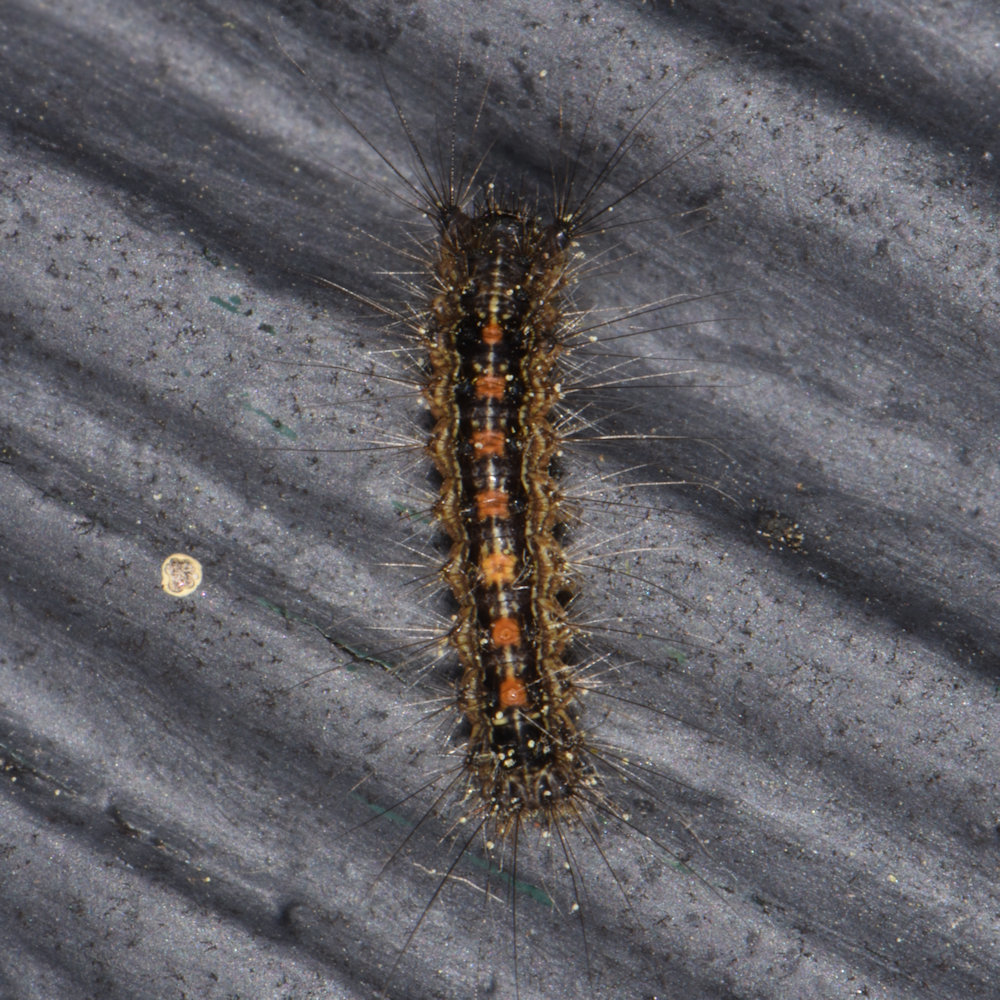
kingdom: Animalia
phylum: Arthropoda
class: Insecta
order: Lepidoptera
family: Erebidae
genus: Lymantria
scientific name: Lymantria dispar
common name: Gypsy moth
